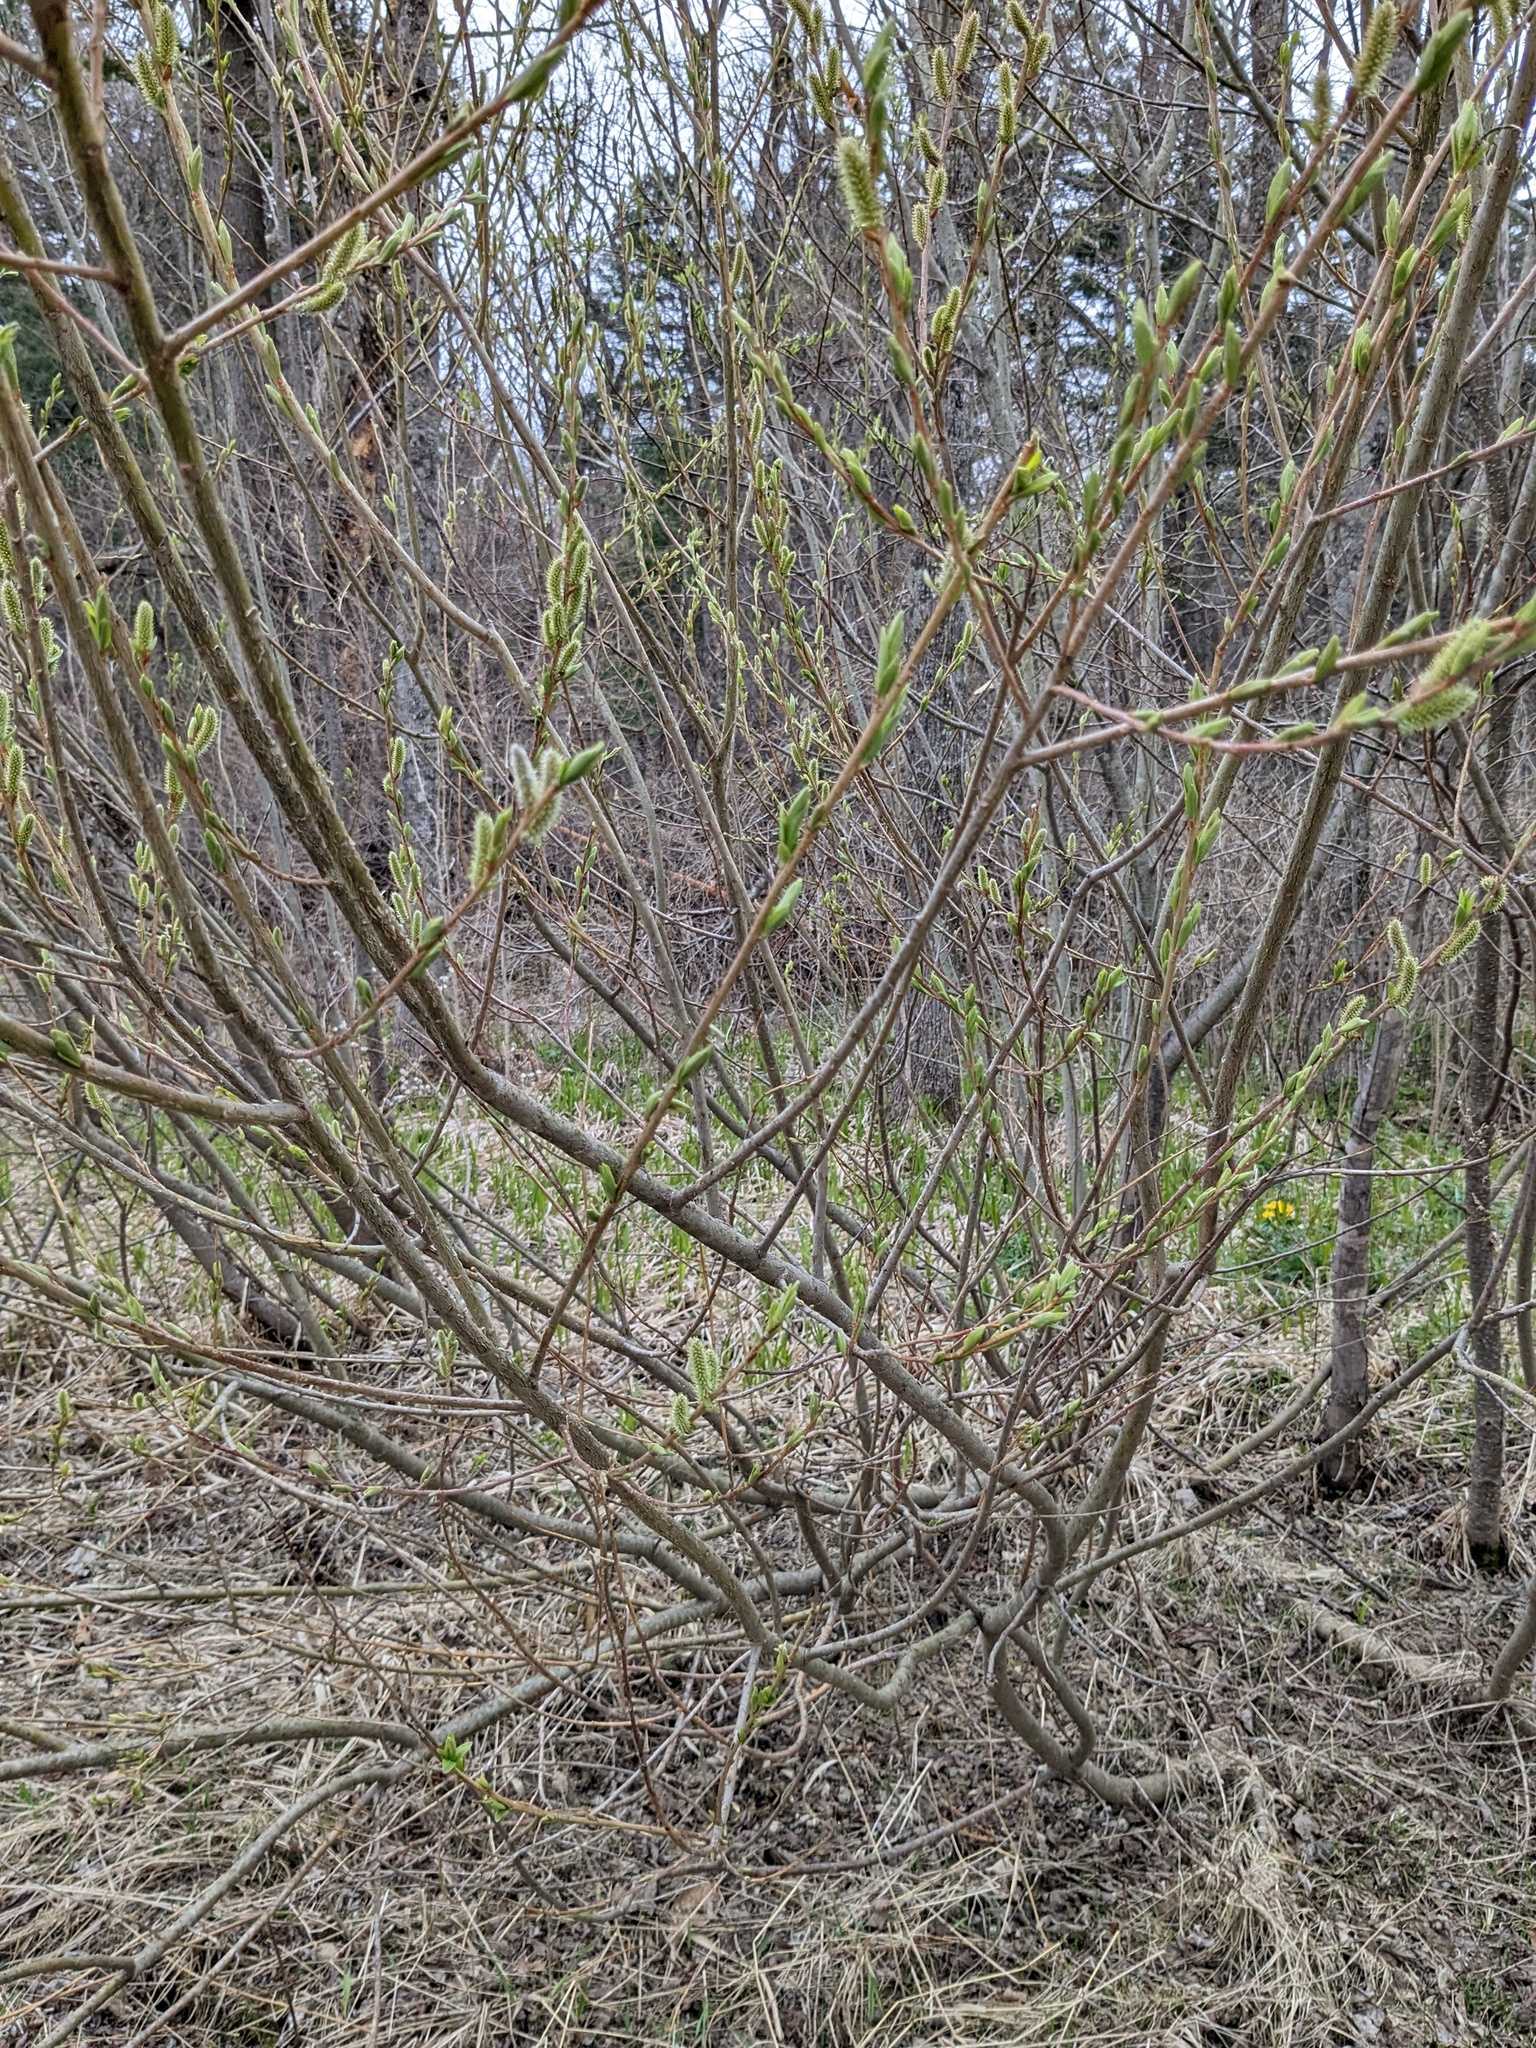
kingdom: Plantae
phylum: Tracheophyta
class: Magnoliopsida
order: Malpighiales
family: Salicaceae
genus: Salix
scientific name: Salix udensis
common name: Sachalin willow
